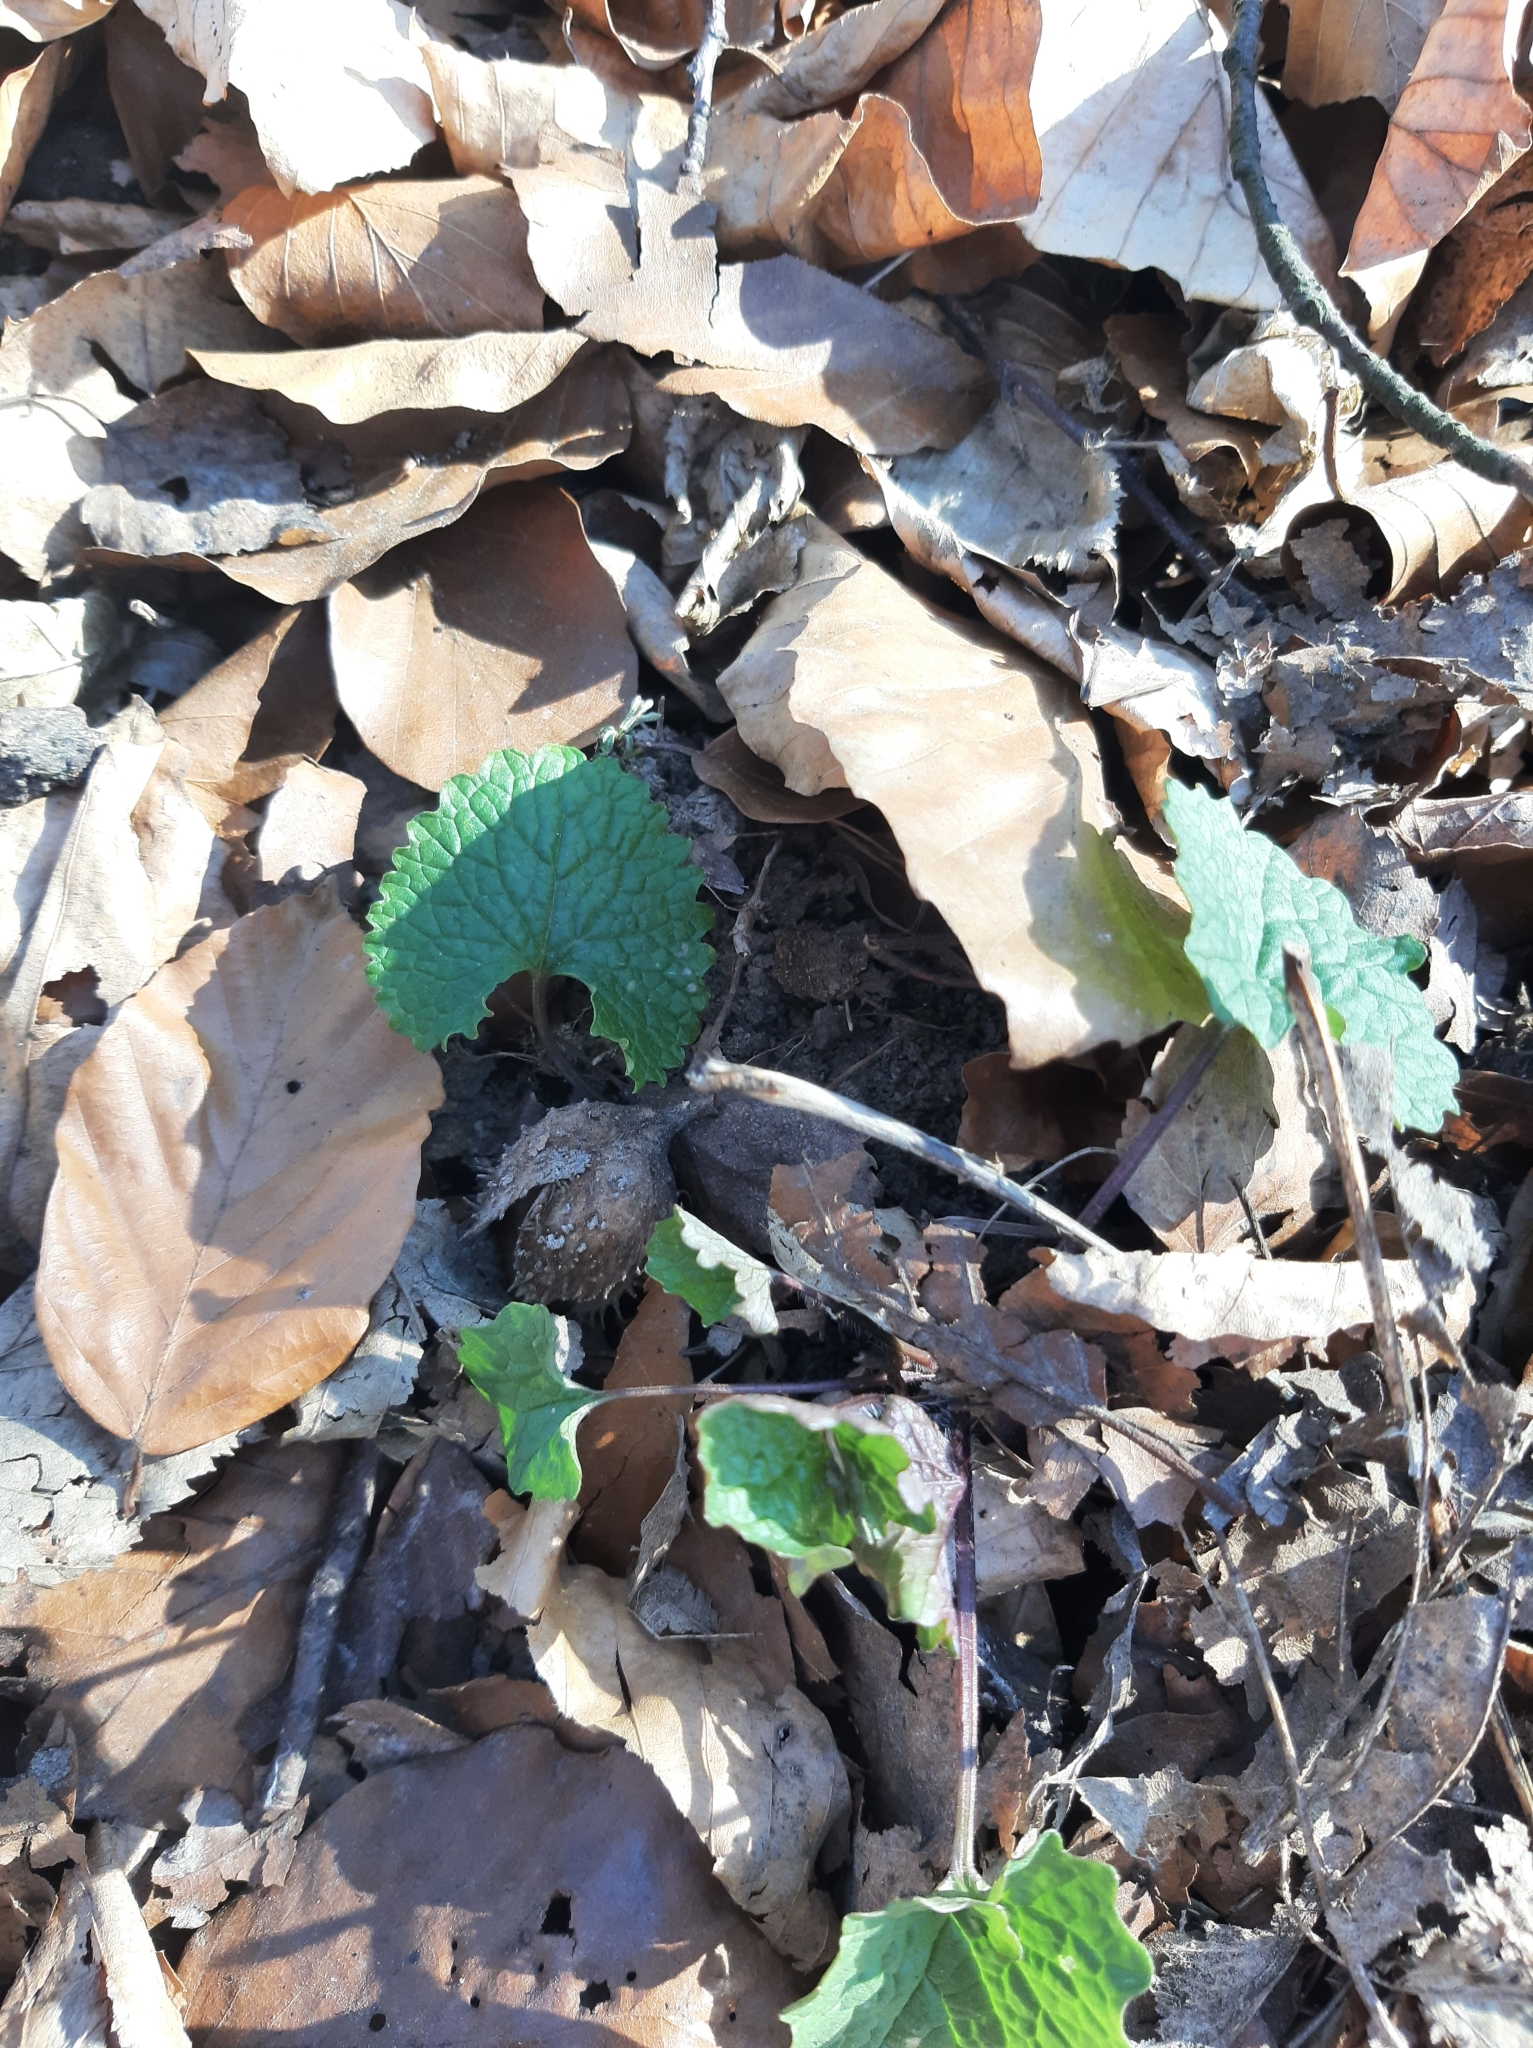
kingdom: Plantae
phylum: Tracheophyta
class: Magnoliopsida
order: Brassicales
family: Brassicaceae
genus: Alliaria
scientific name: Alliaria petiolata
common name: Garlic mustard
